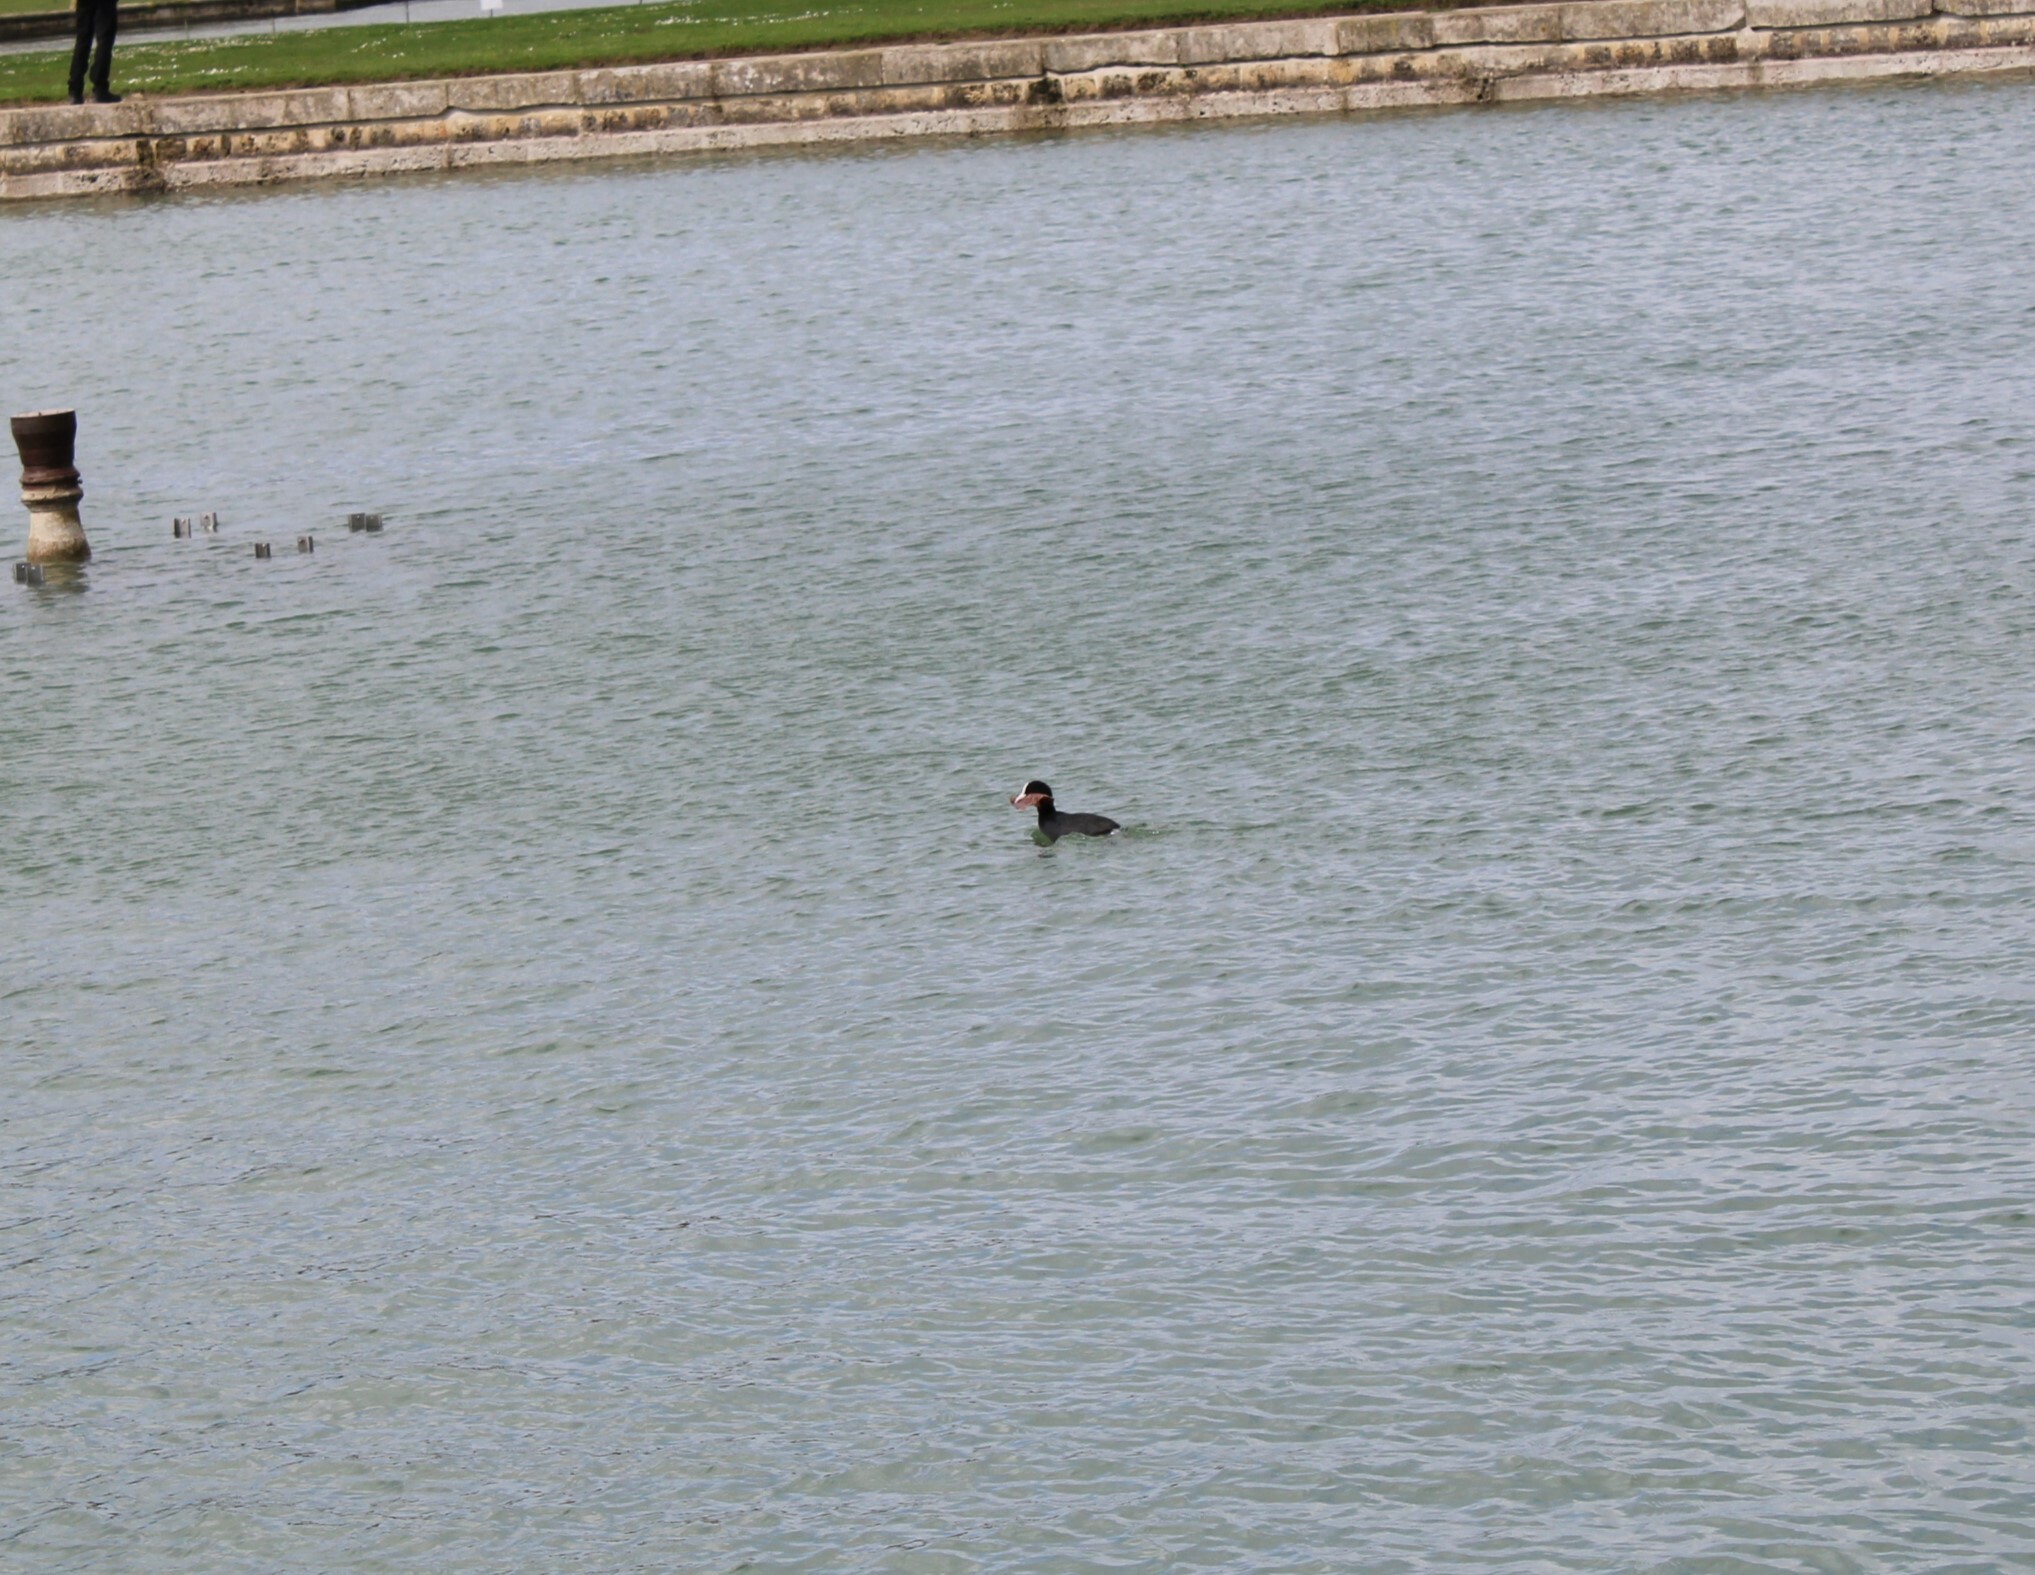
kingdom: Animalia
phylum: Chordata
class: Aves
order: Gruiformes
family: Rallidae
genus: Fulica
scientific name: Fulica atra
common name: Eurasian coot
